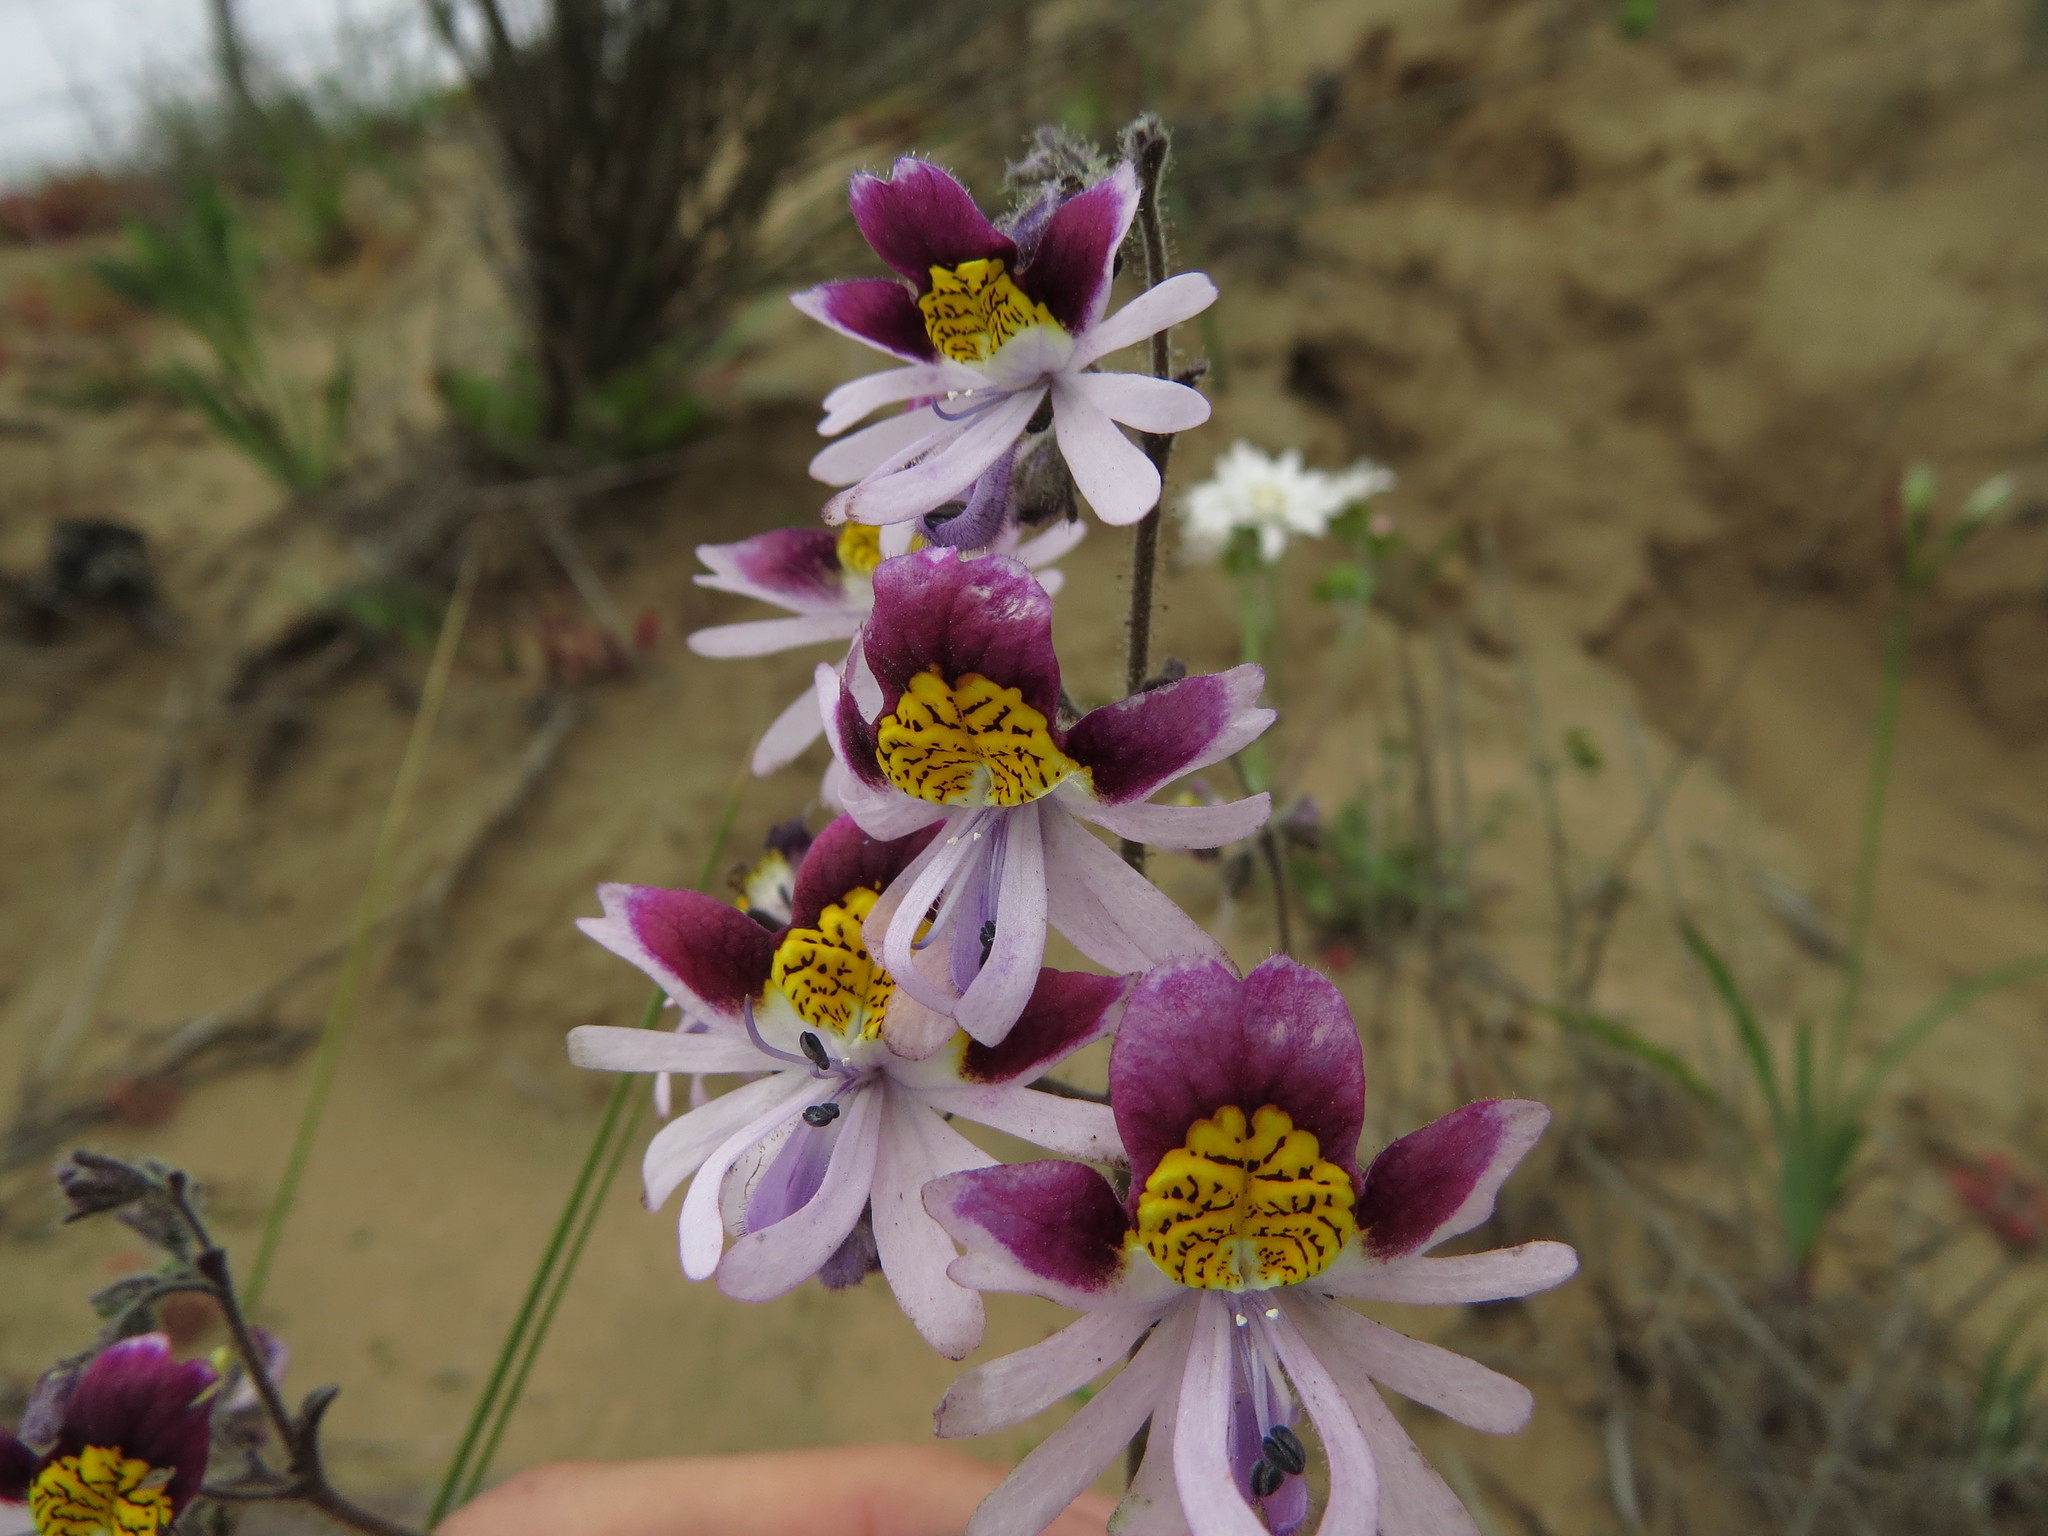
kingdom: Plantae
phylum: Tracheophyta
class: Magnoliopsida
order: Solanales
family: Solanaceae
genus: Schizanthus
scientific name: Schizanthus litoralis
